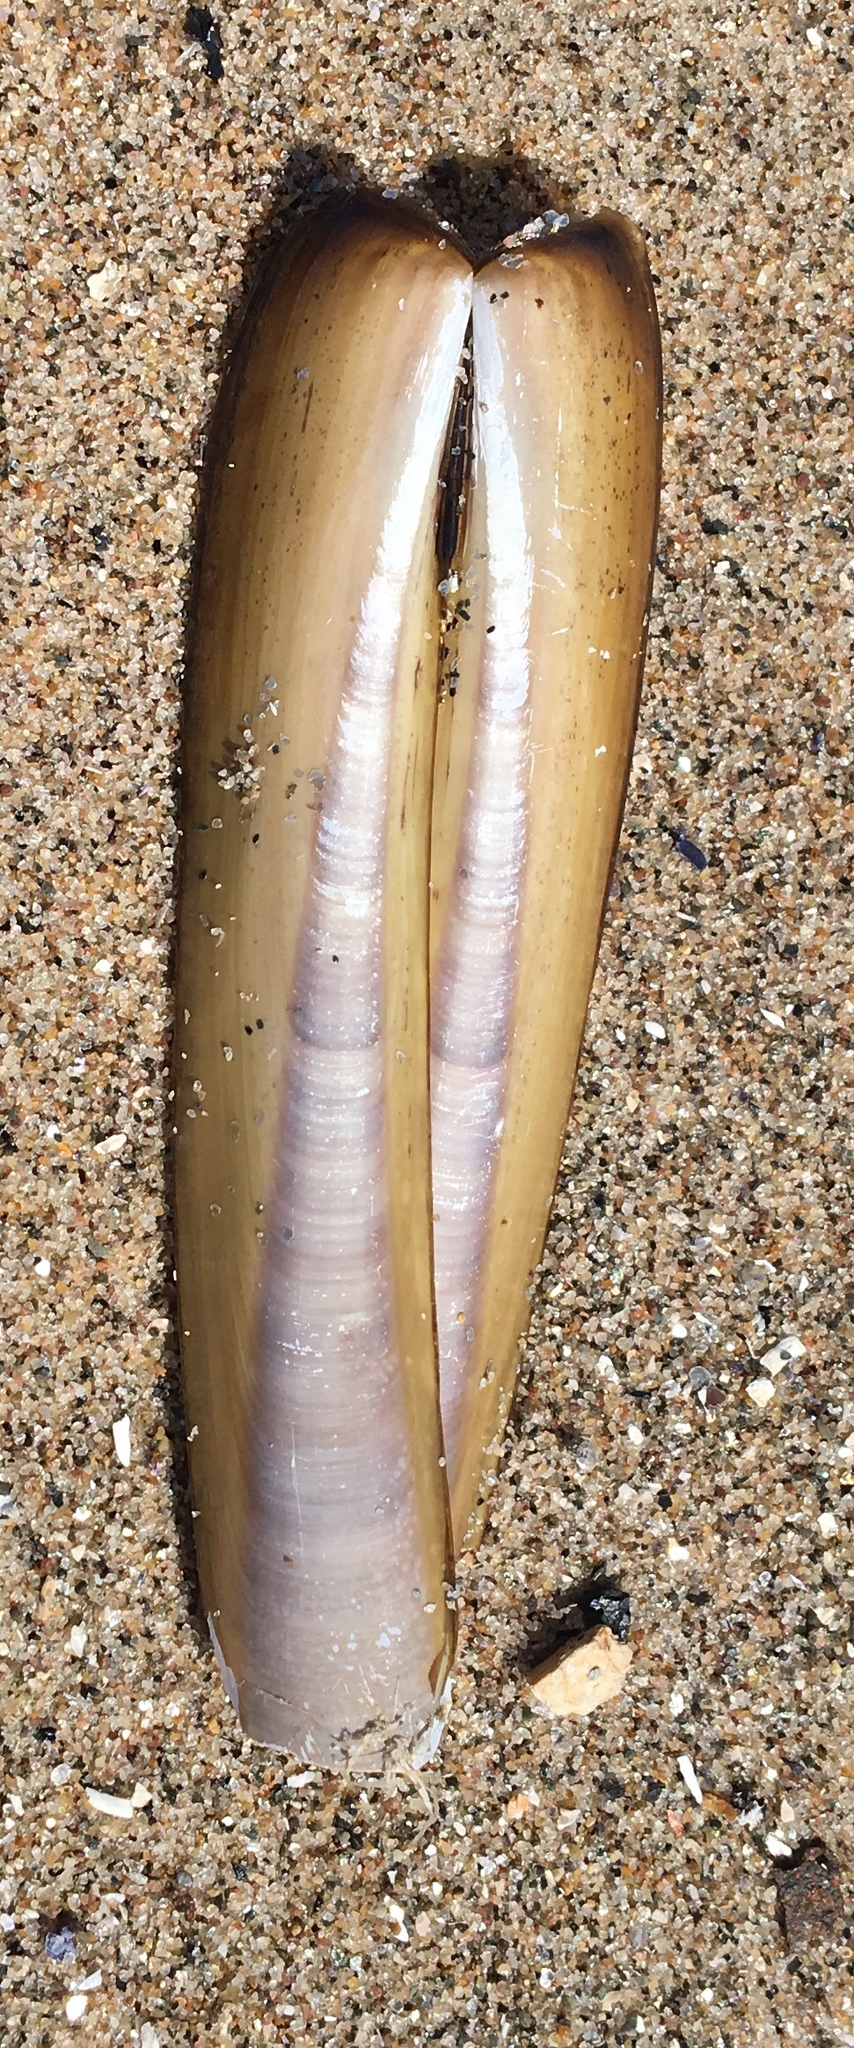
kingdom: Animalia
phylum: Mollusca
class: Bivalvia
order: Adapedonta
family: Pharidae
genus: Ensis
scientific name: Ensis leei
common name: American jack knife clam
